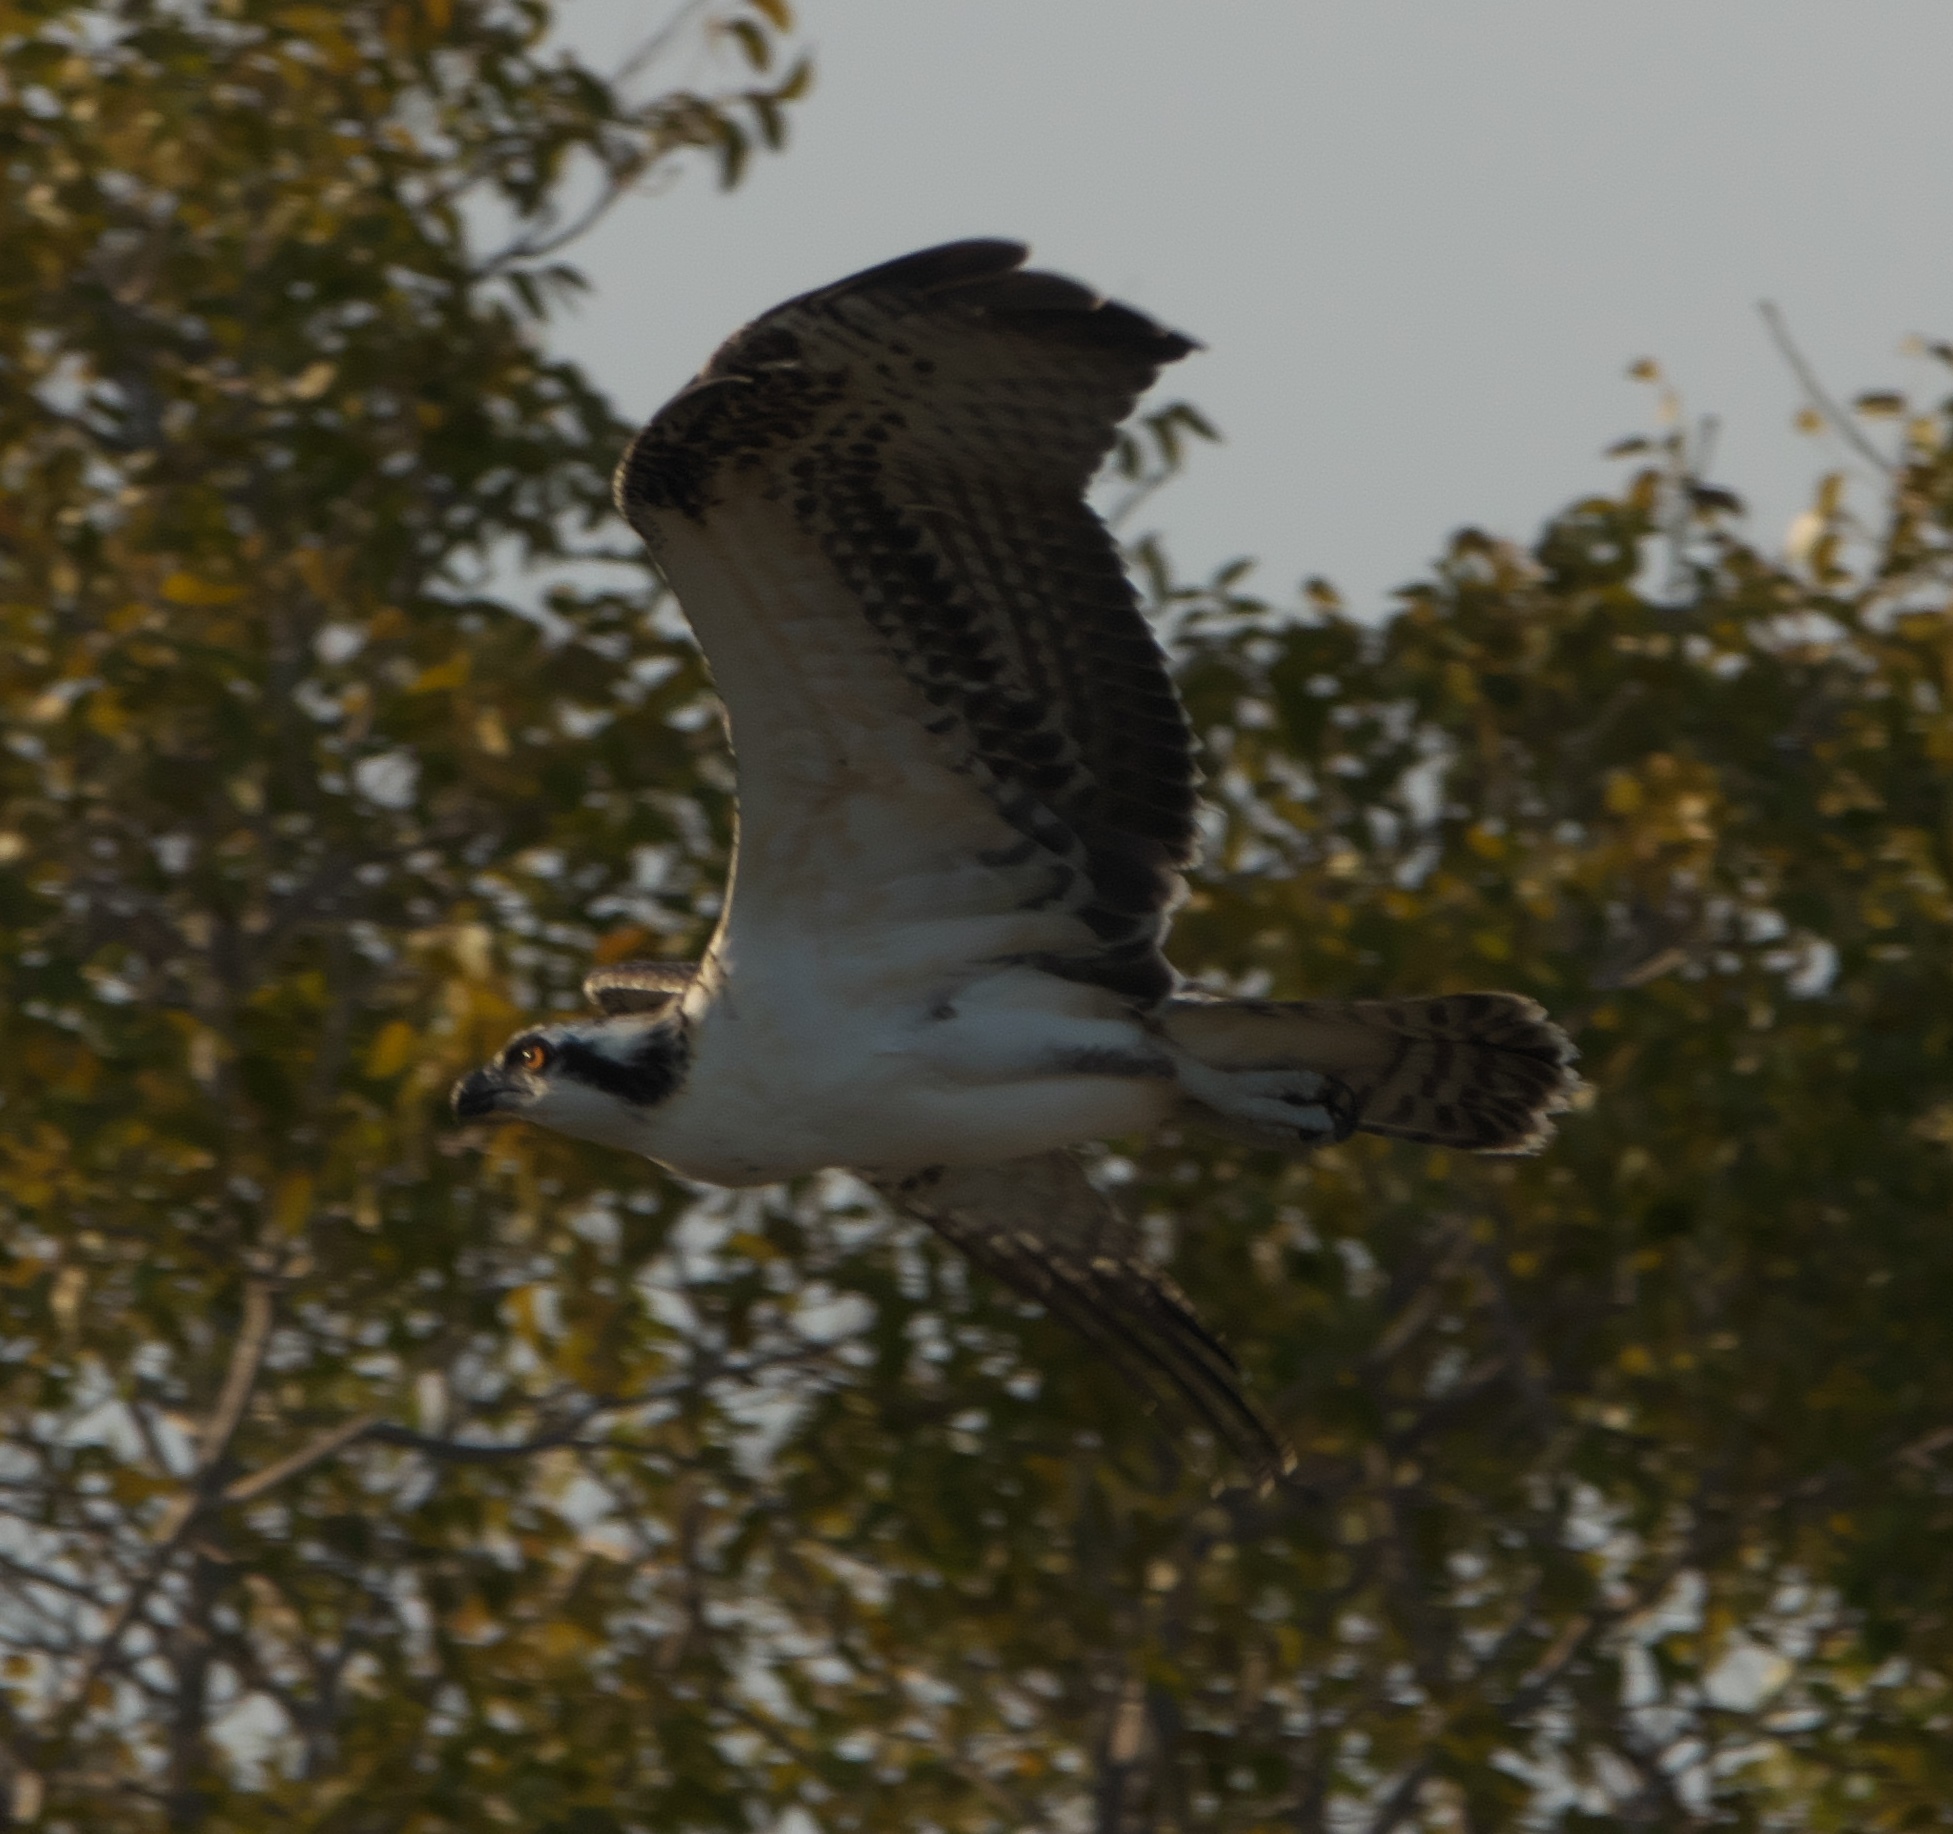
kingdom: Animalia
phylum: Chordata
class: Aves
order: Accipitriformes
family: Pandionidae
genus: Pandion
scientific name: Pandion haliaetus
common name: Osprey
